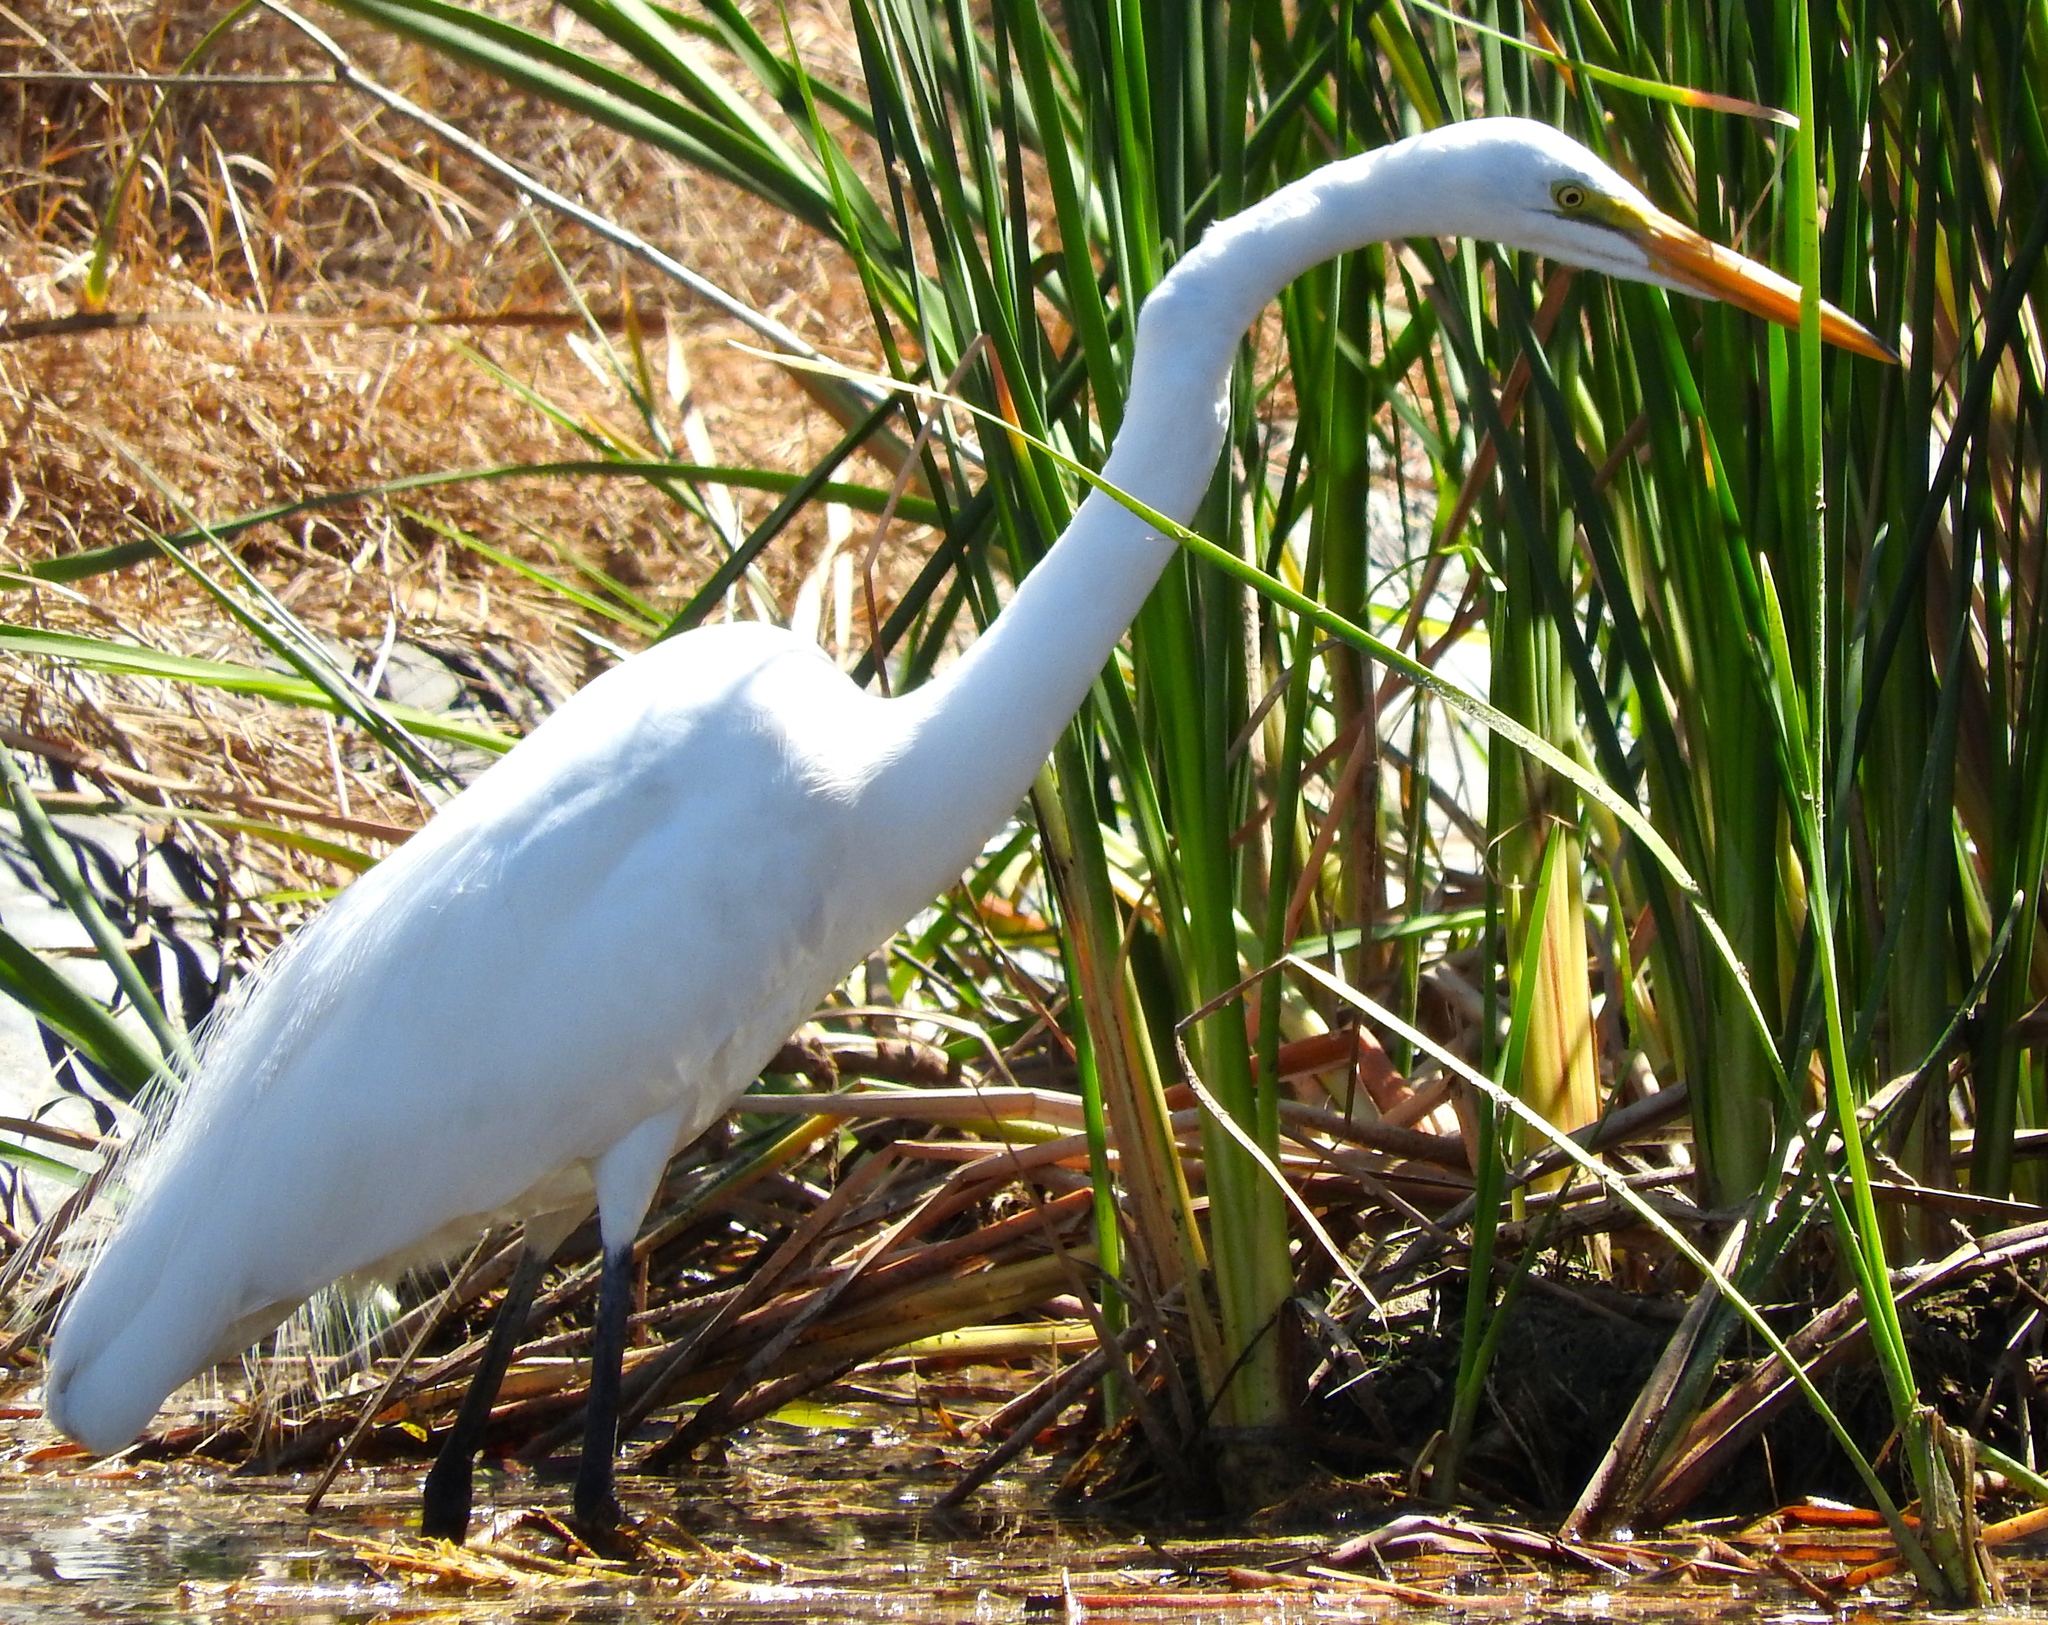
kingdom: Animalia
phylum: Chordata
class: Aves
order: Pelecaniformes
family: Ardeidae
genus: Ardea
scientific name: Ardea alba
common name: Great egret
